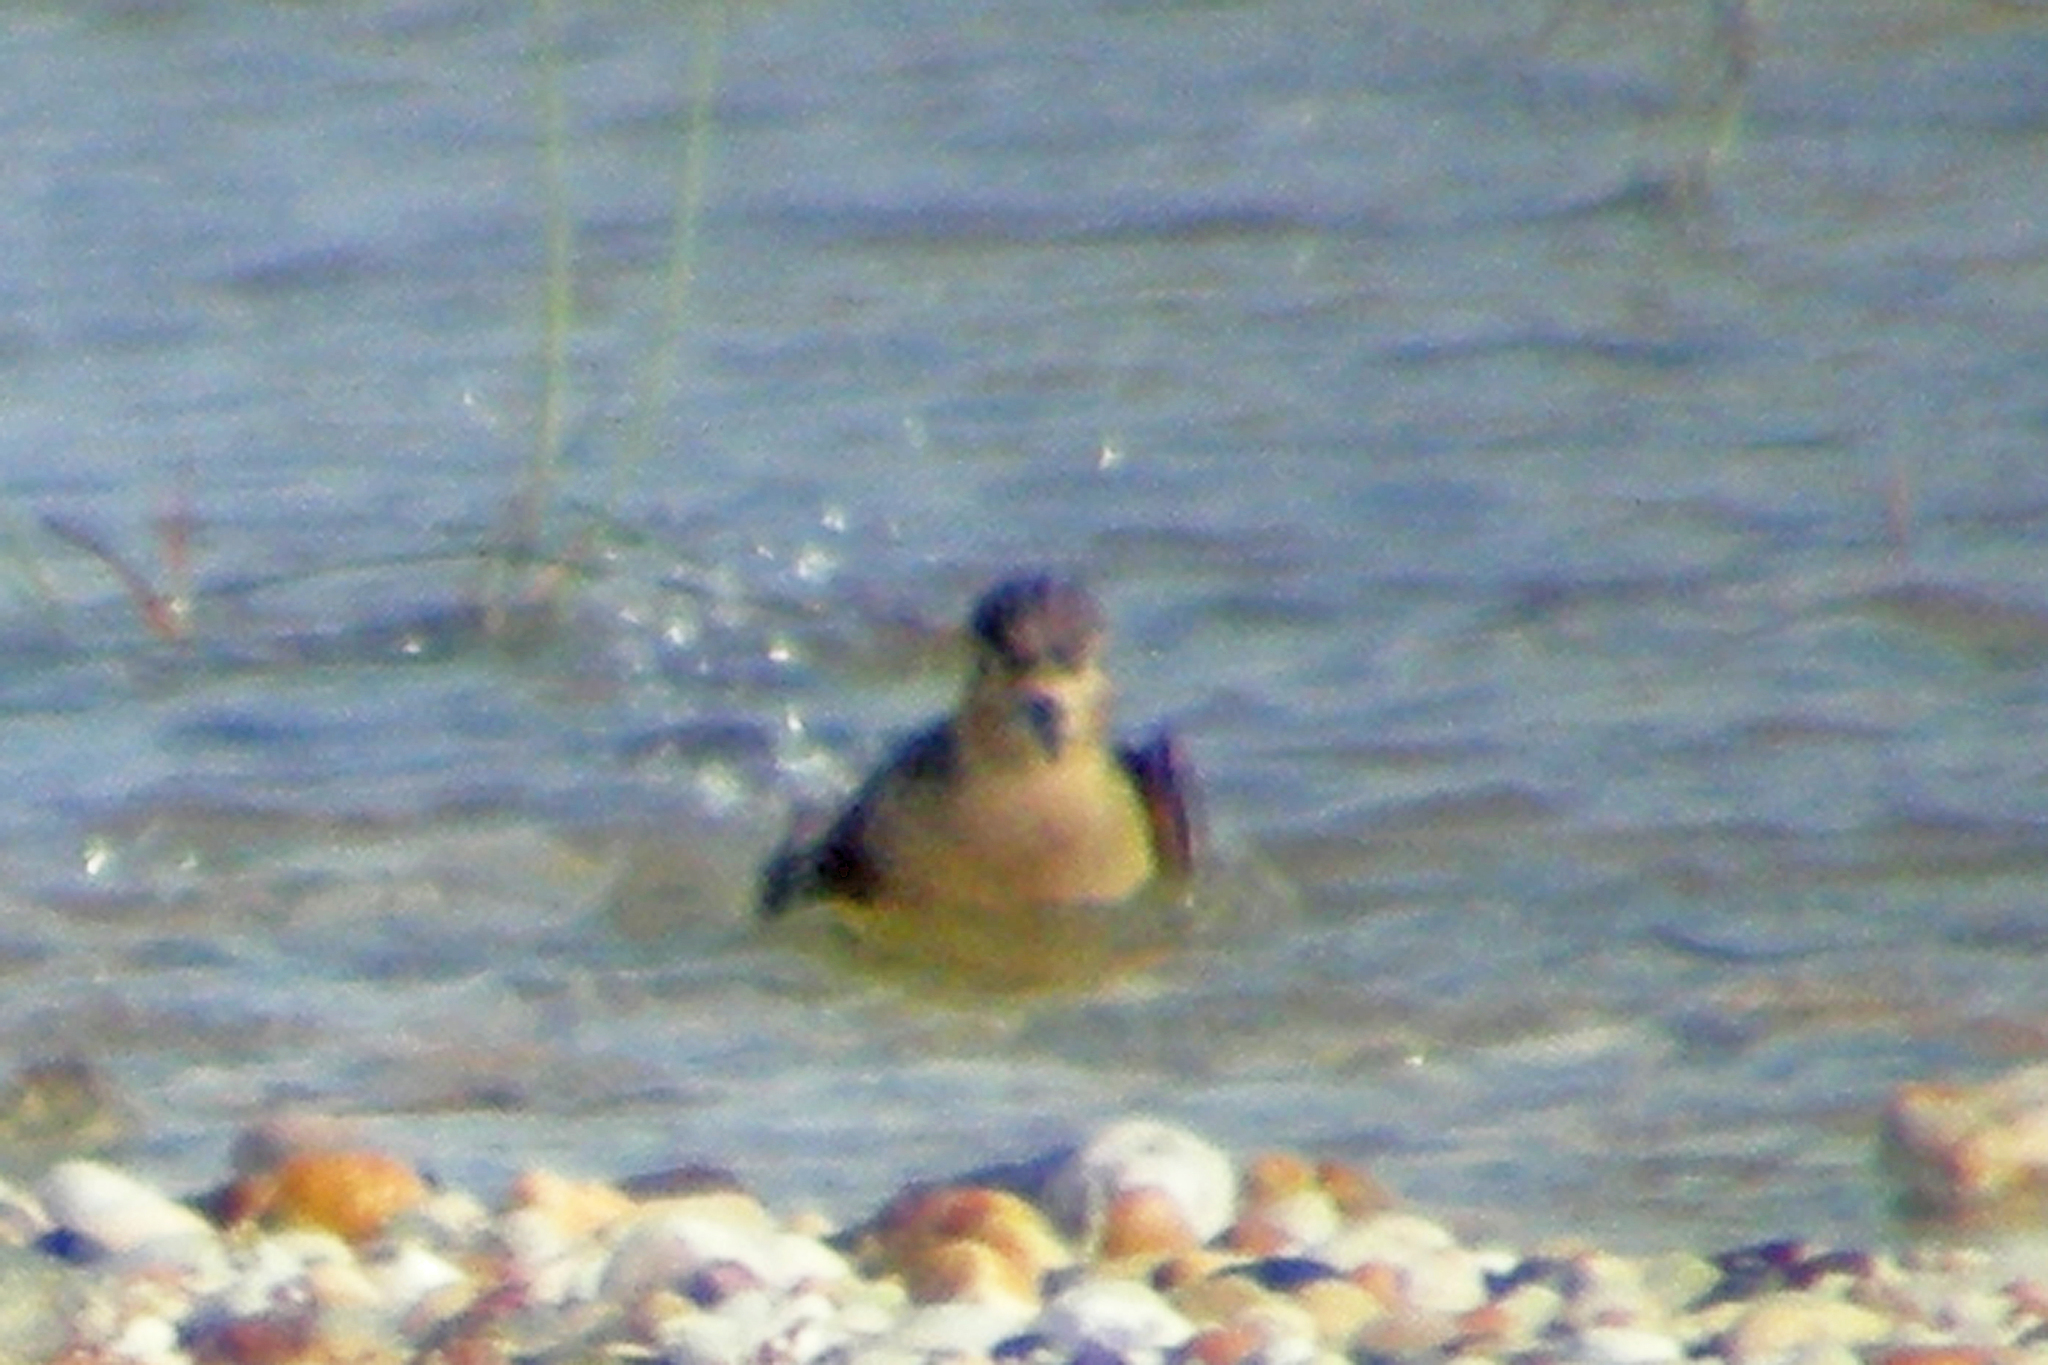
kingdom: Animalia
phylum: Chordata
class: Aves
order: Charadriiformes
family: Scolopacidae
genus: Calidris
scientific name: Calidris subruficollis
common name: Buff-breasted sandpiper
